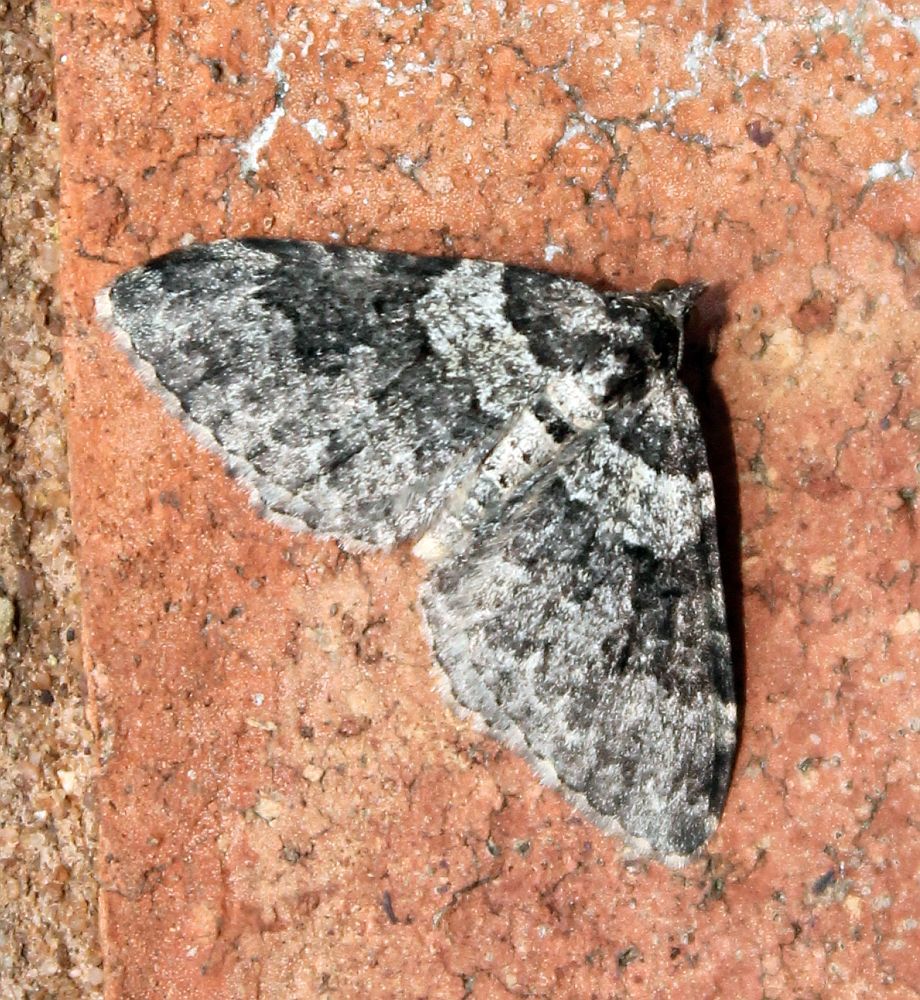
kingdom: Animalia
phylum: Arthropoda
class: Insecta
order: Lepidoptera
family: Geometridae
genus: Xanthorhoe
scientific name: Xanthorhoe fluctuata
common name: Garden carpet
